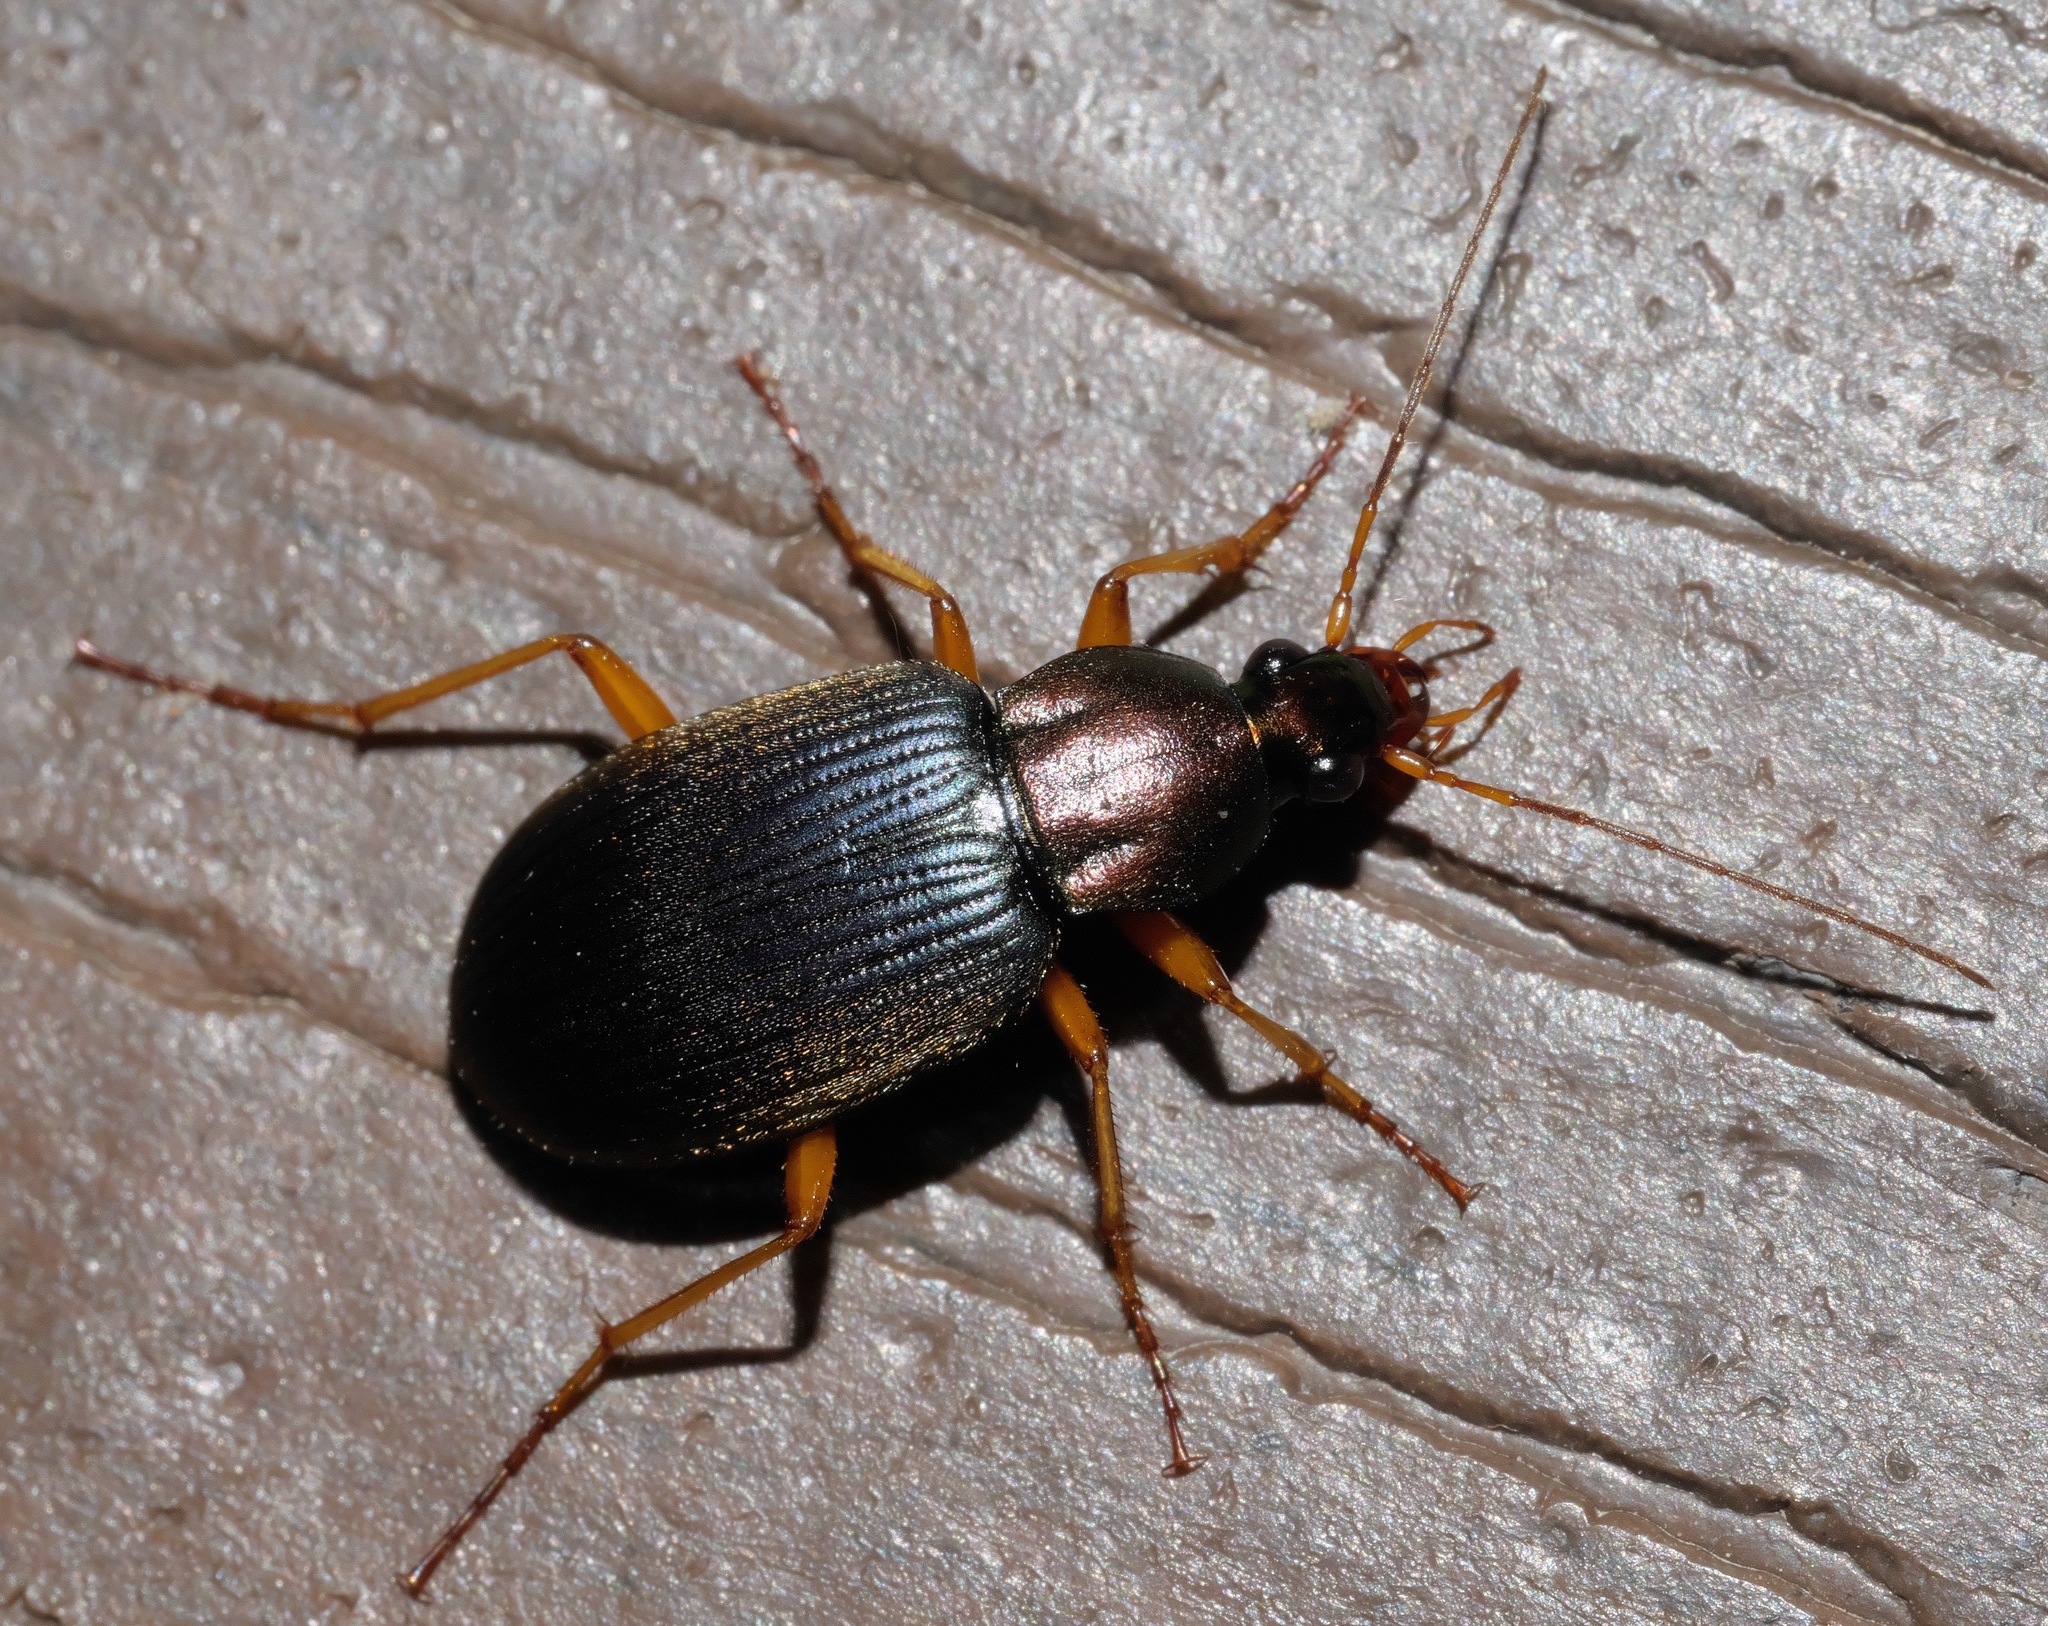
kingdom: Animalia
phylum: Arthropoda
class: Insecta
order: Coleoptera
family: Carabidae
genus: Chlaenius
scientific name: Chlaenius tricolor
